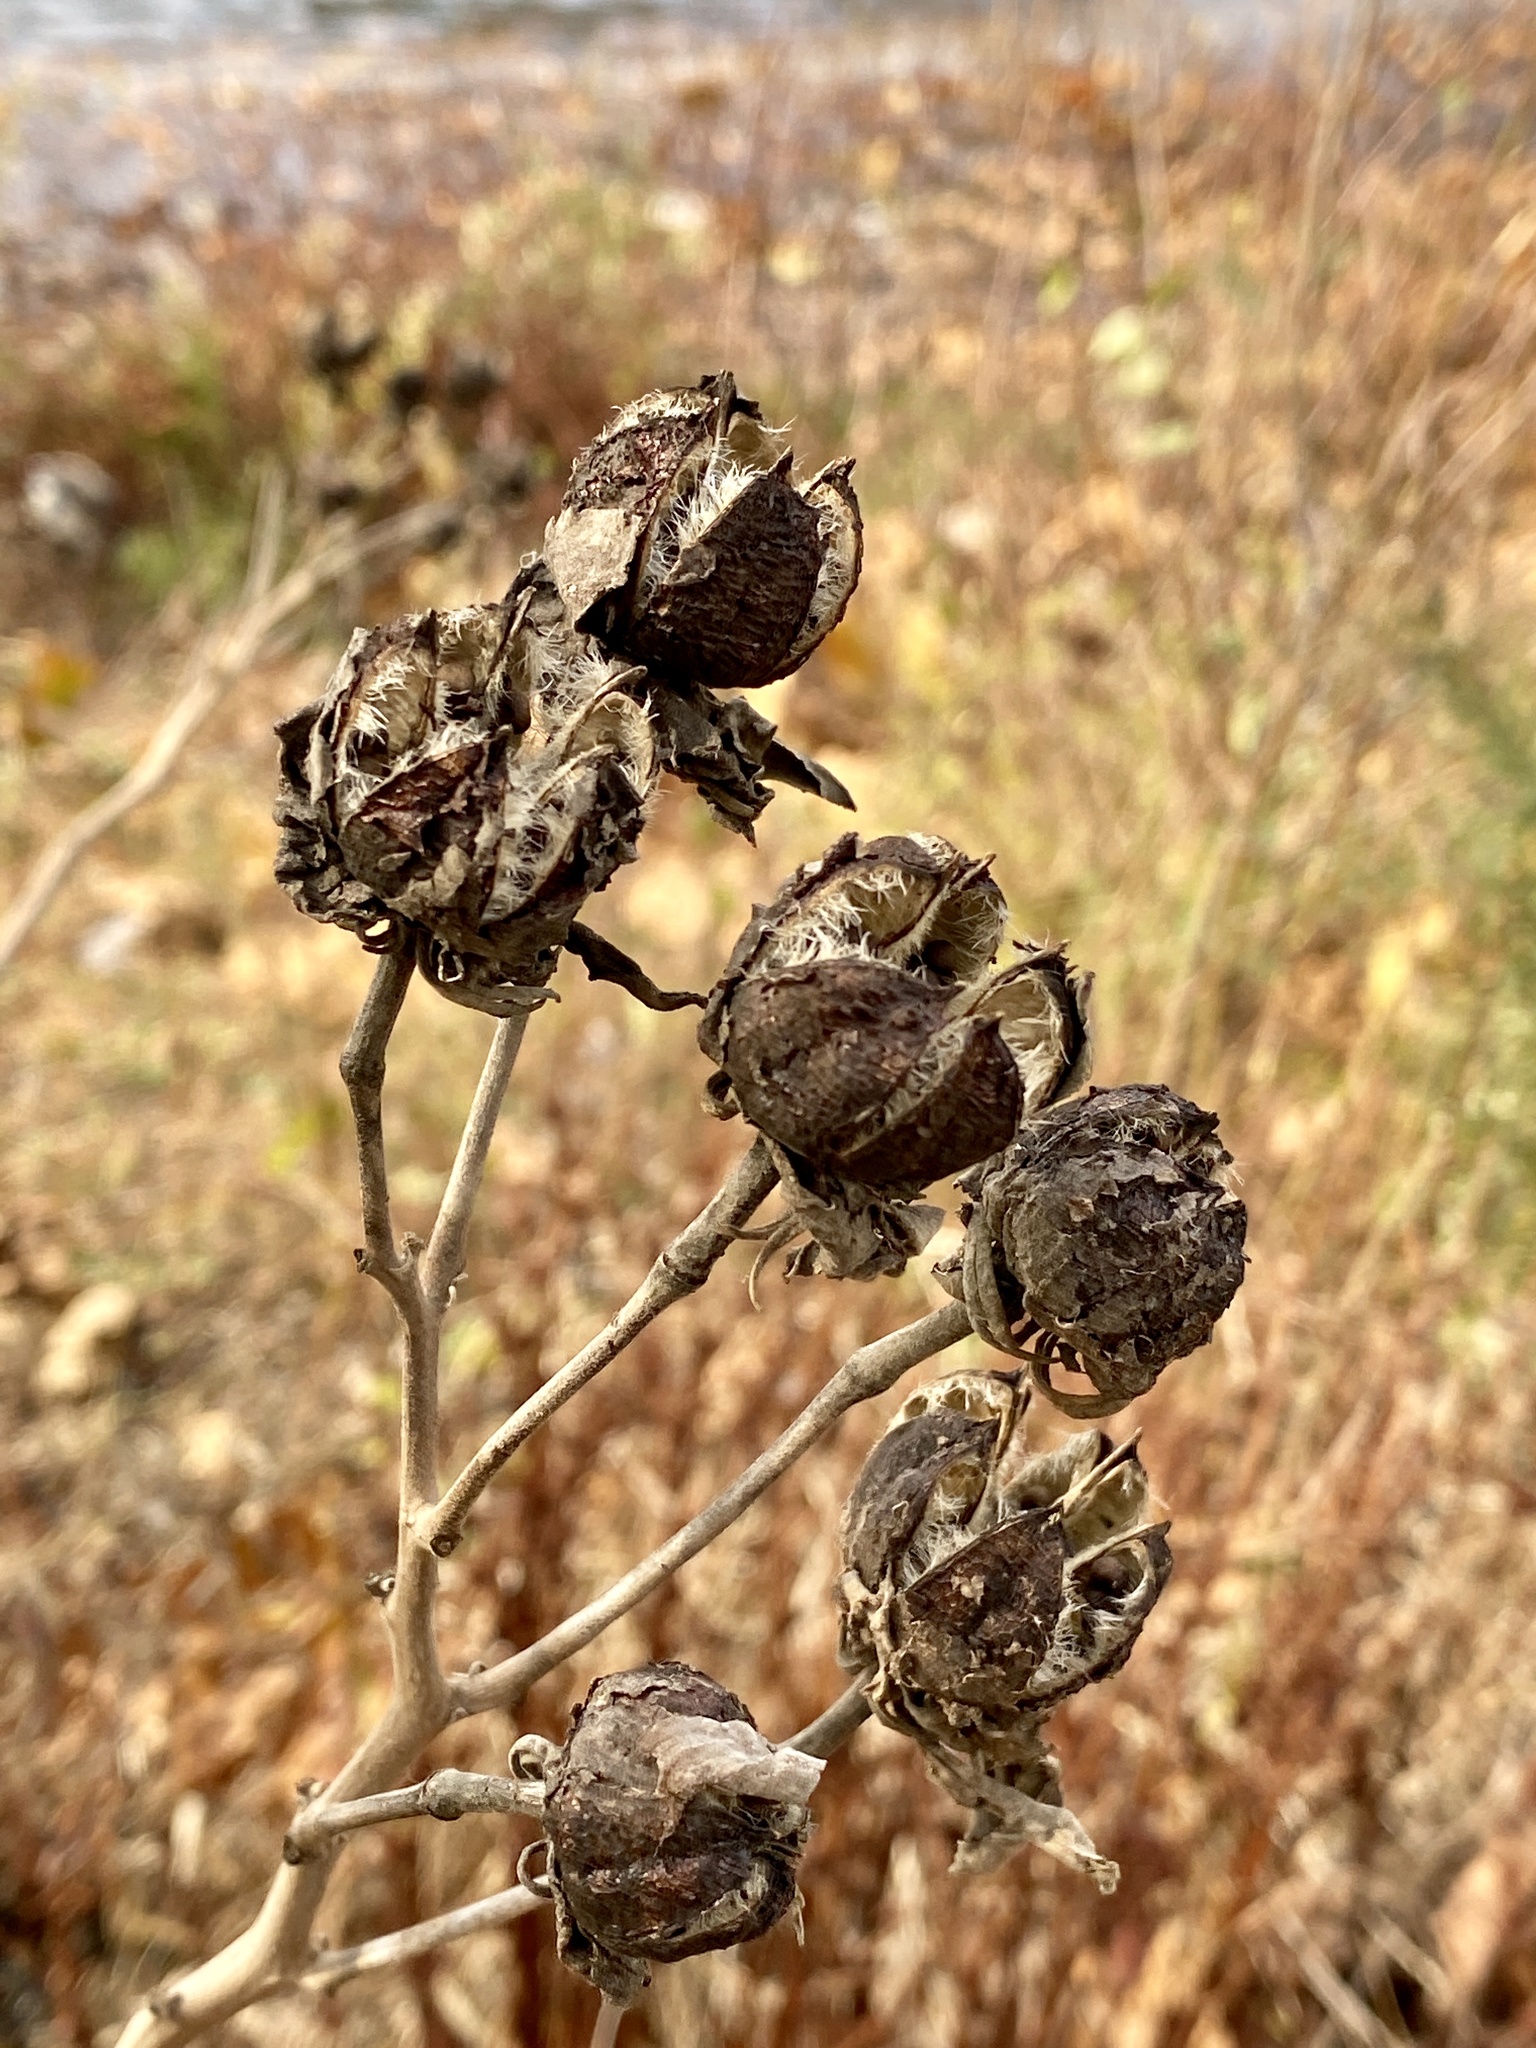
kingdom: Plantae
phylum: Tracheophyta
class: Magnoliopsida
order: Malvales
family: Malvaceae
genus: Hibiscus
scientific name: Hibiscus moscheutos
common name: Common rose-mallow
